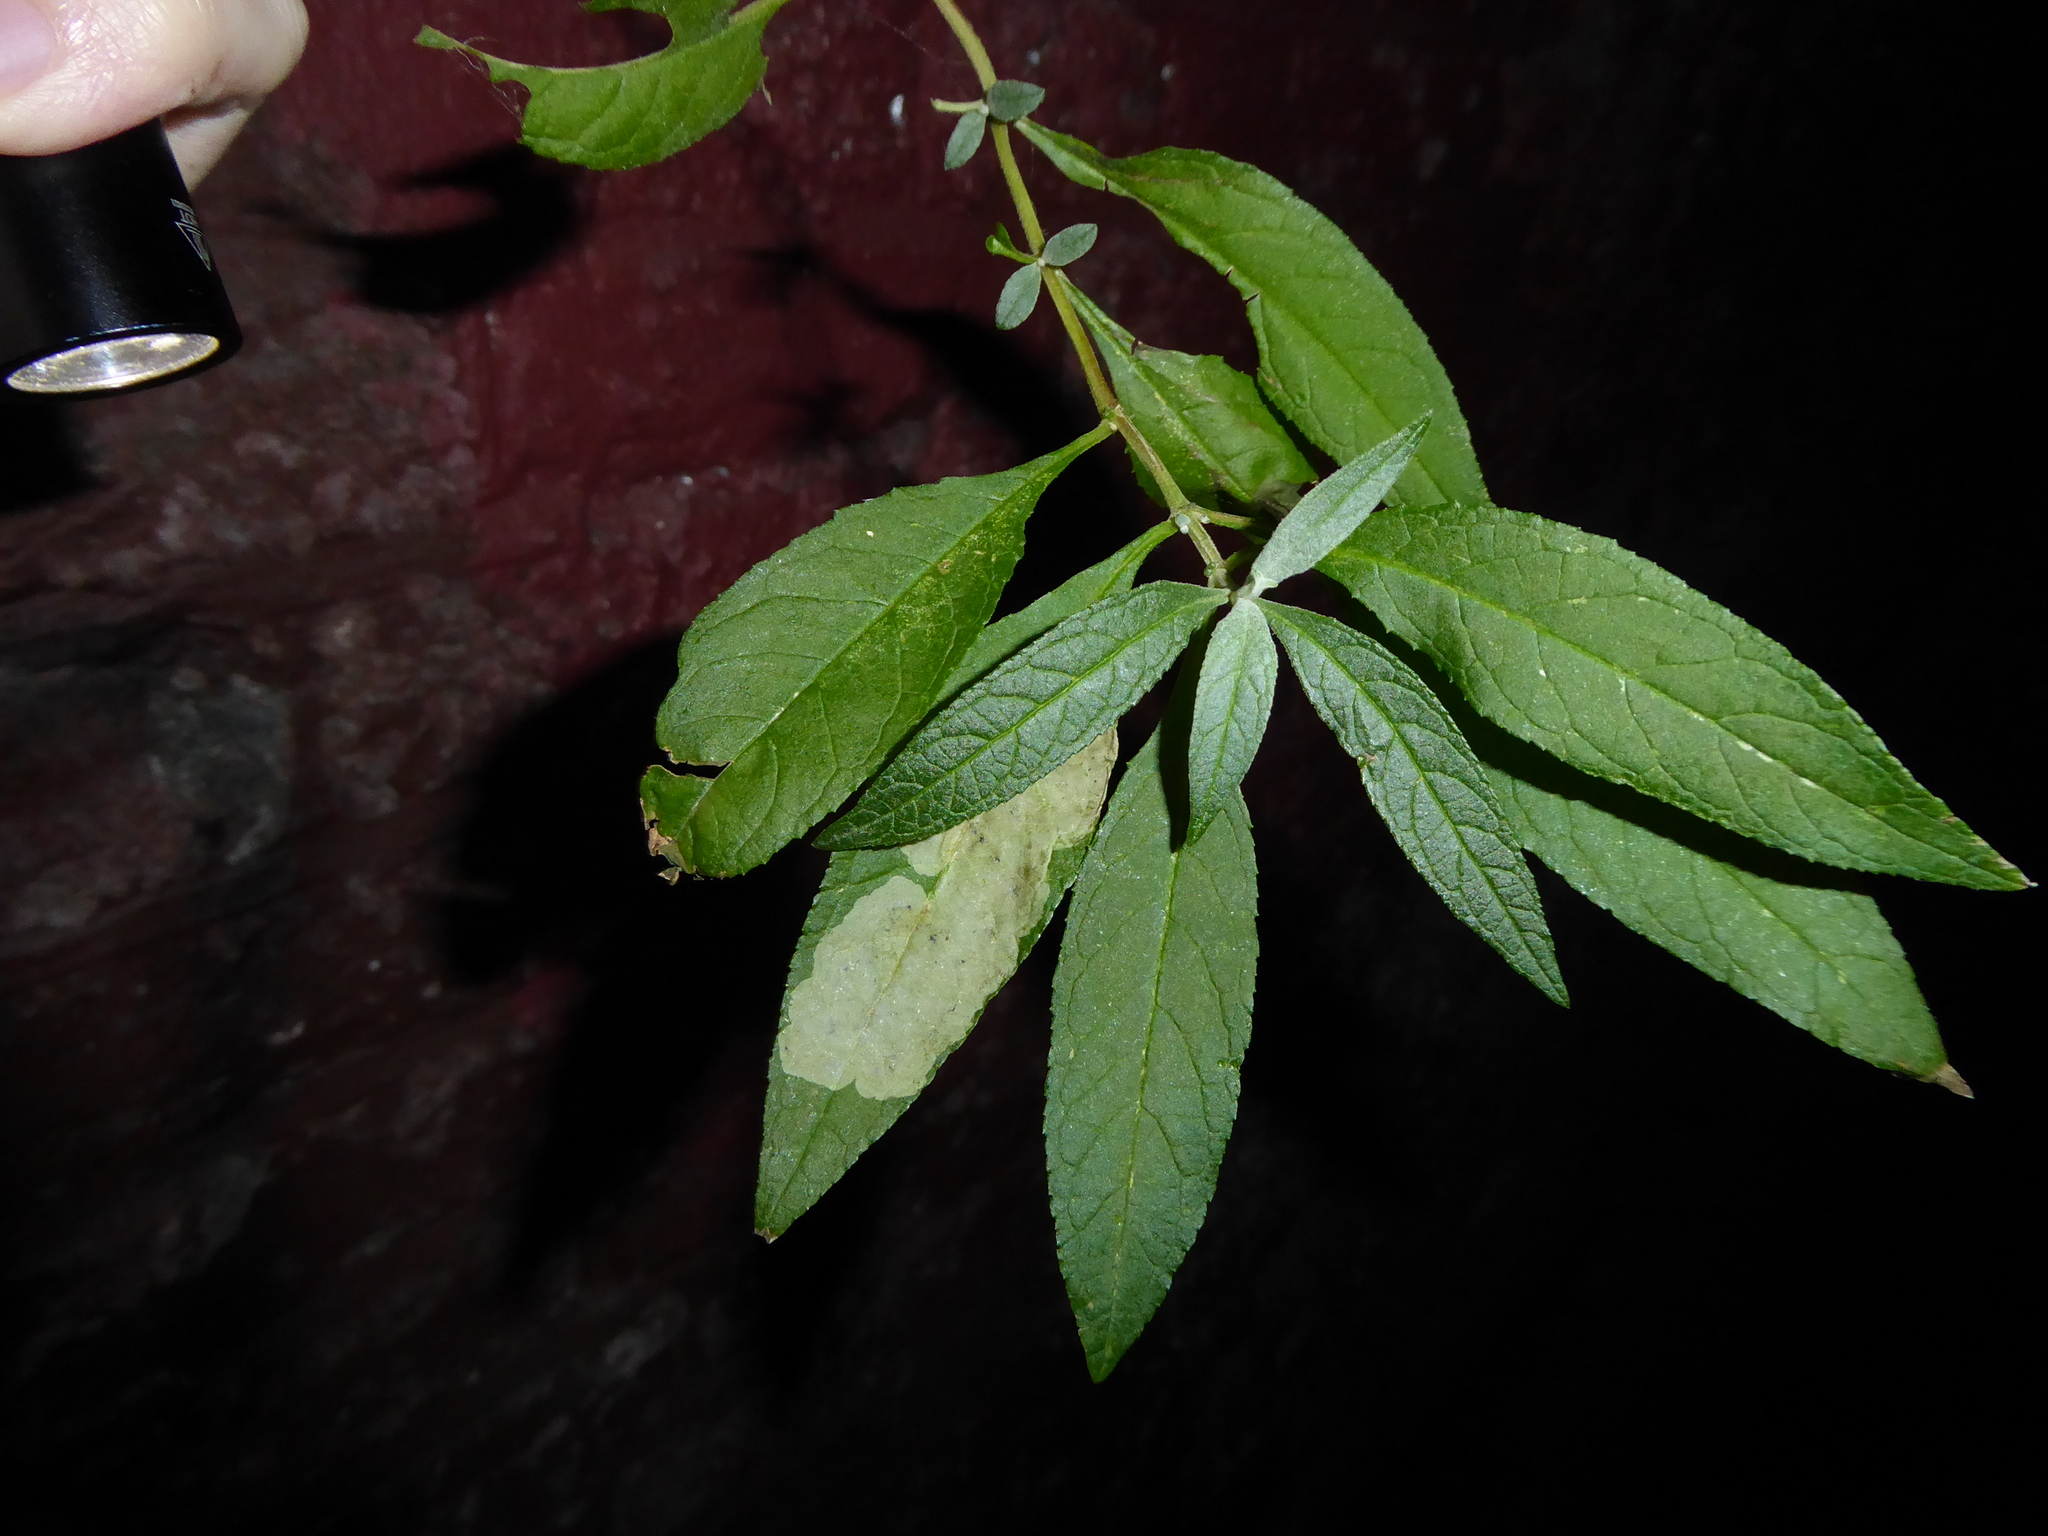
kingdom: Animalia
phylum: Arthropoda
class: Insecta
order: Diptera
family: Agromyzidae
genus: Amauromyza
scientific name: Amauromyza verbasci
